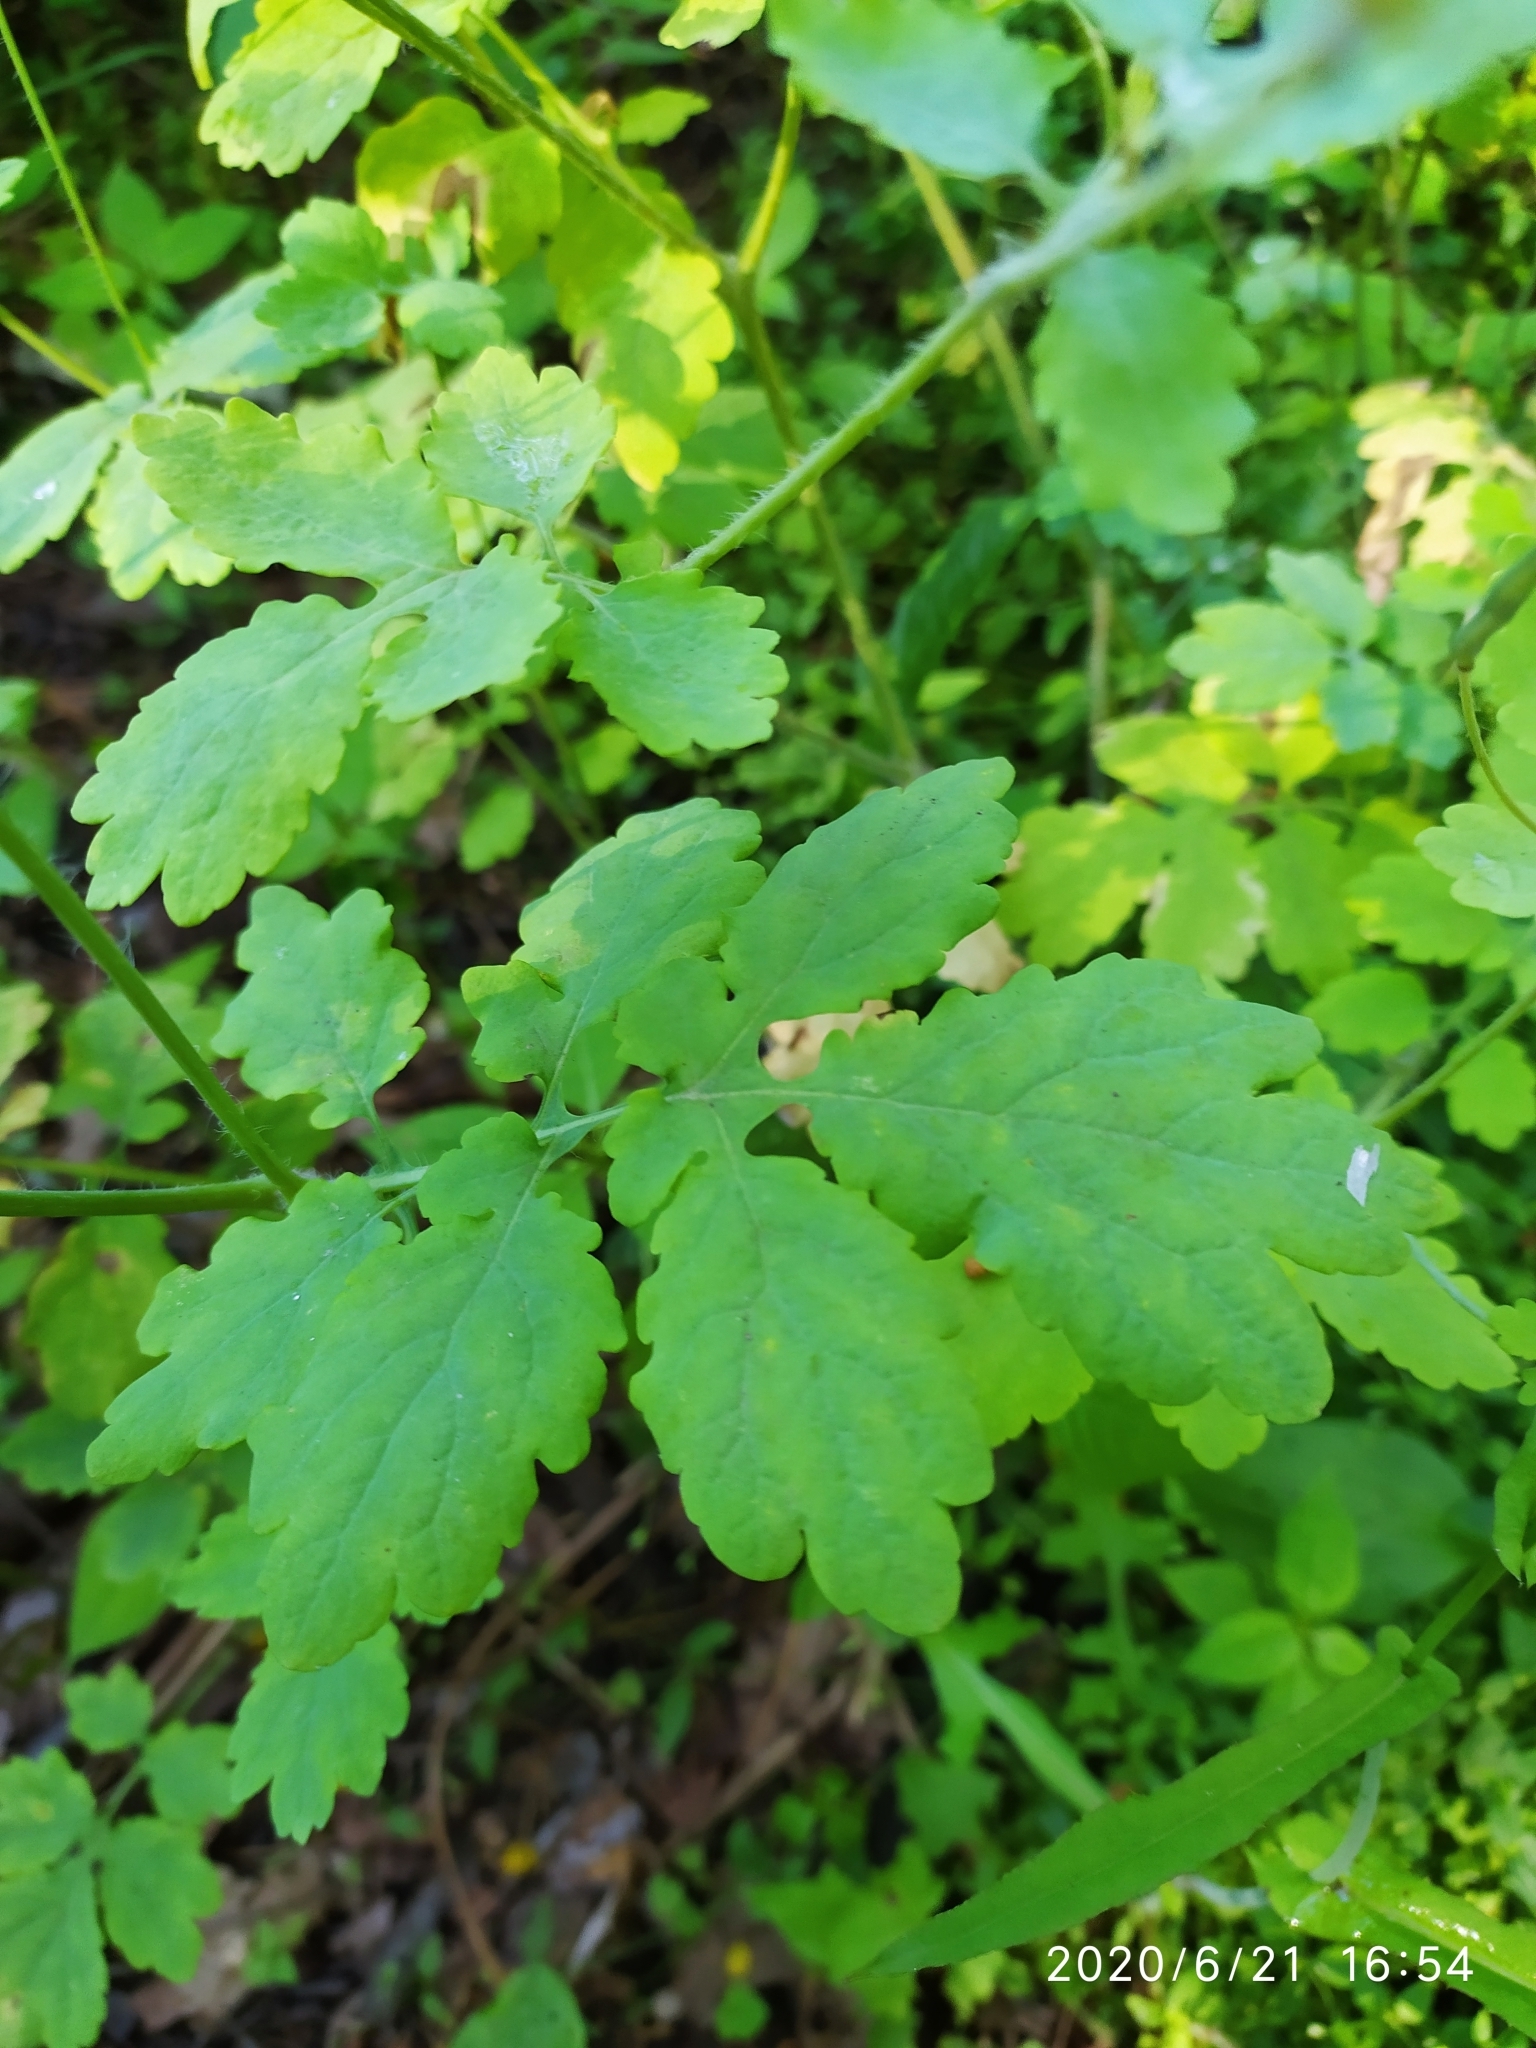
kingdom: Plantae
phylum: Tracheophyta
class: Magnoliopsida
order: Ranunculales
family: Papaveraceae
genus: Chelidonium
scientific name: Chelidonium majus
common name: Greater celandine
